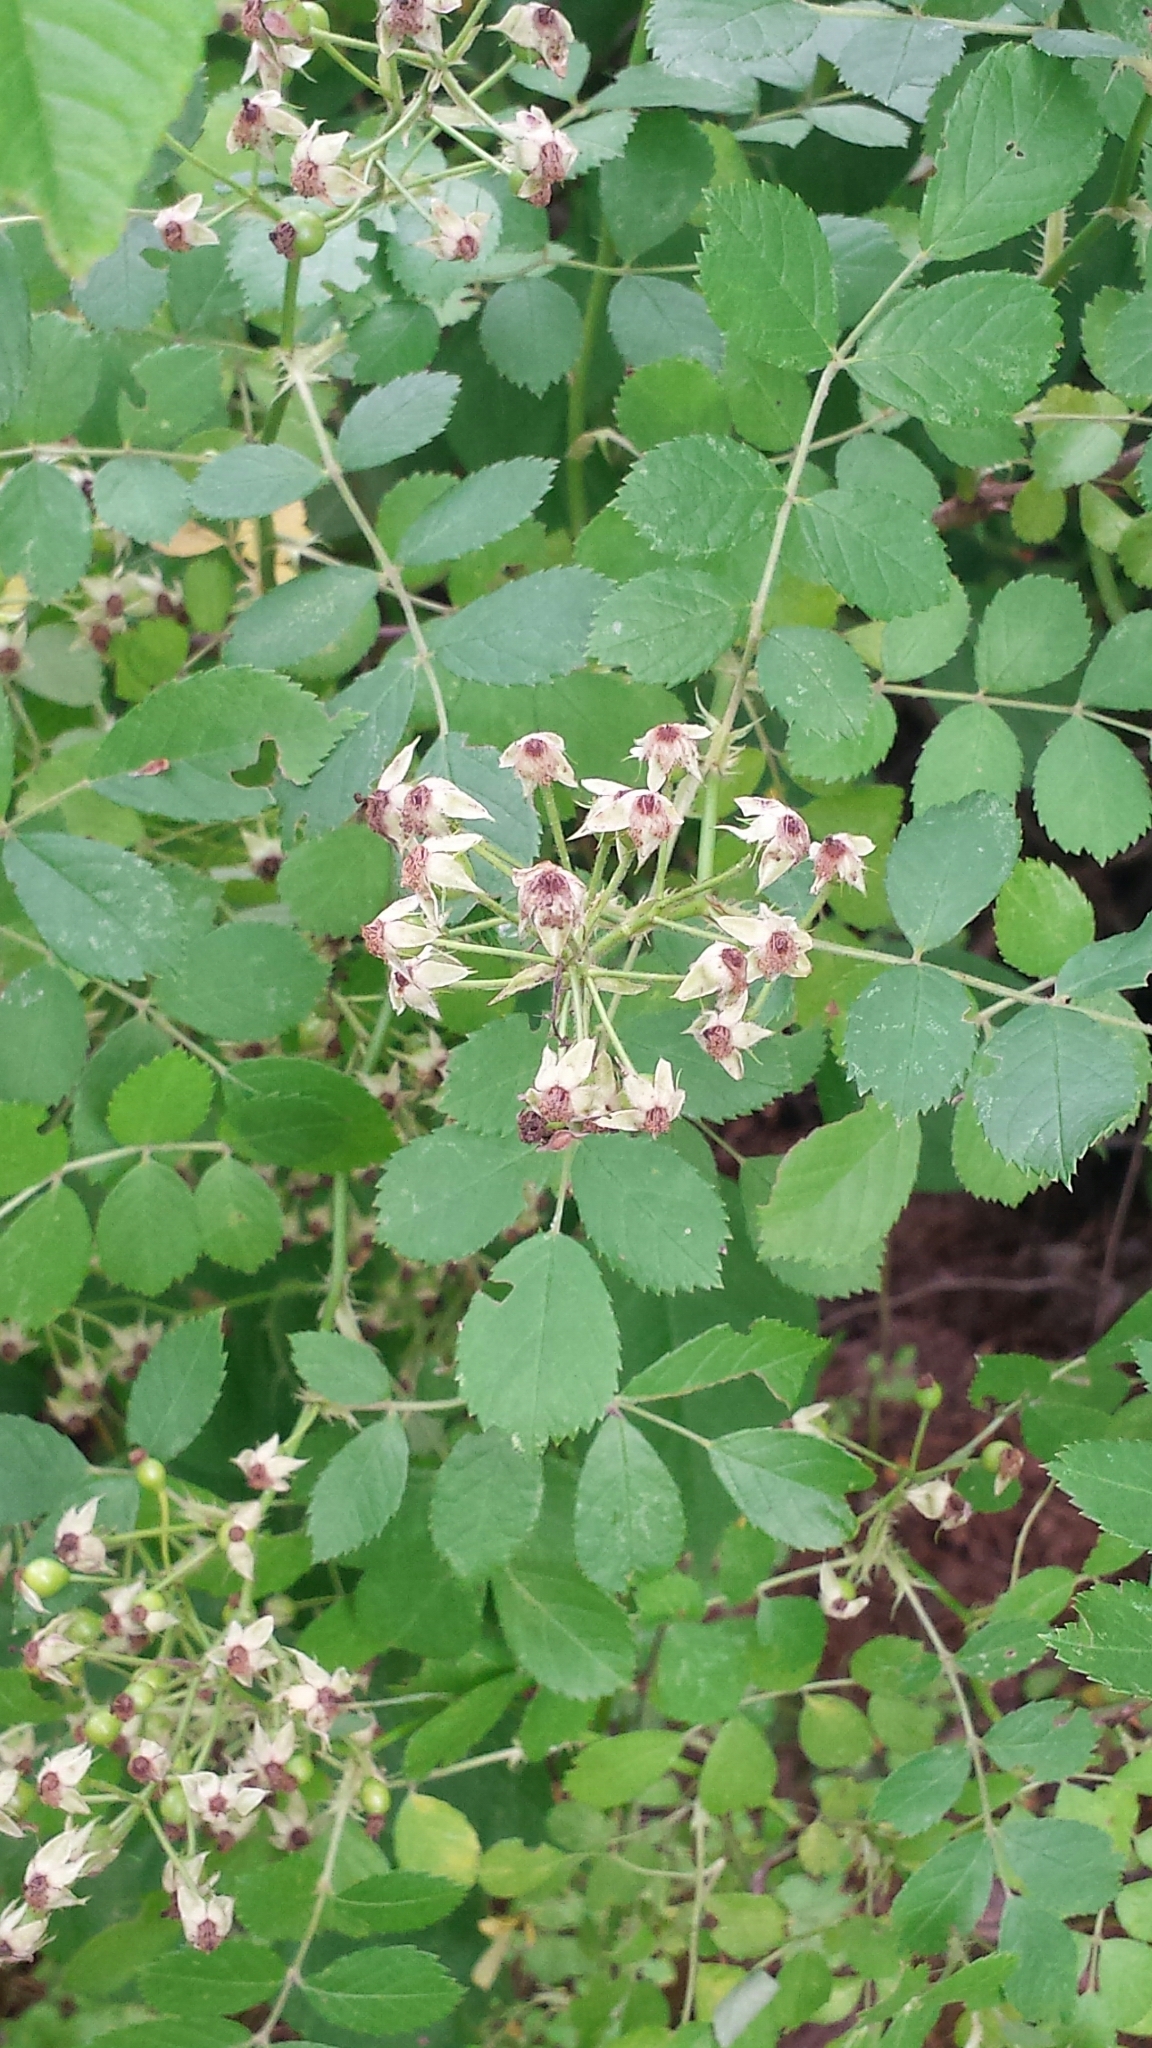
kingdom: Plantae
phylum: Tracheophyta
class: Magnoliopsida
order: Rosales
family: Rosaceae
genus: Rosa
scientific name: Rosa multiflora
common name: Multiflora rose
